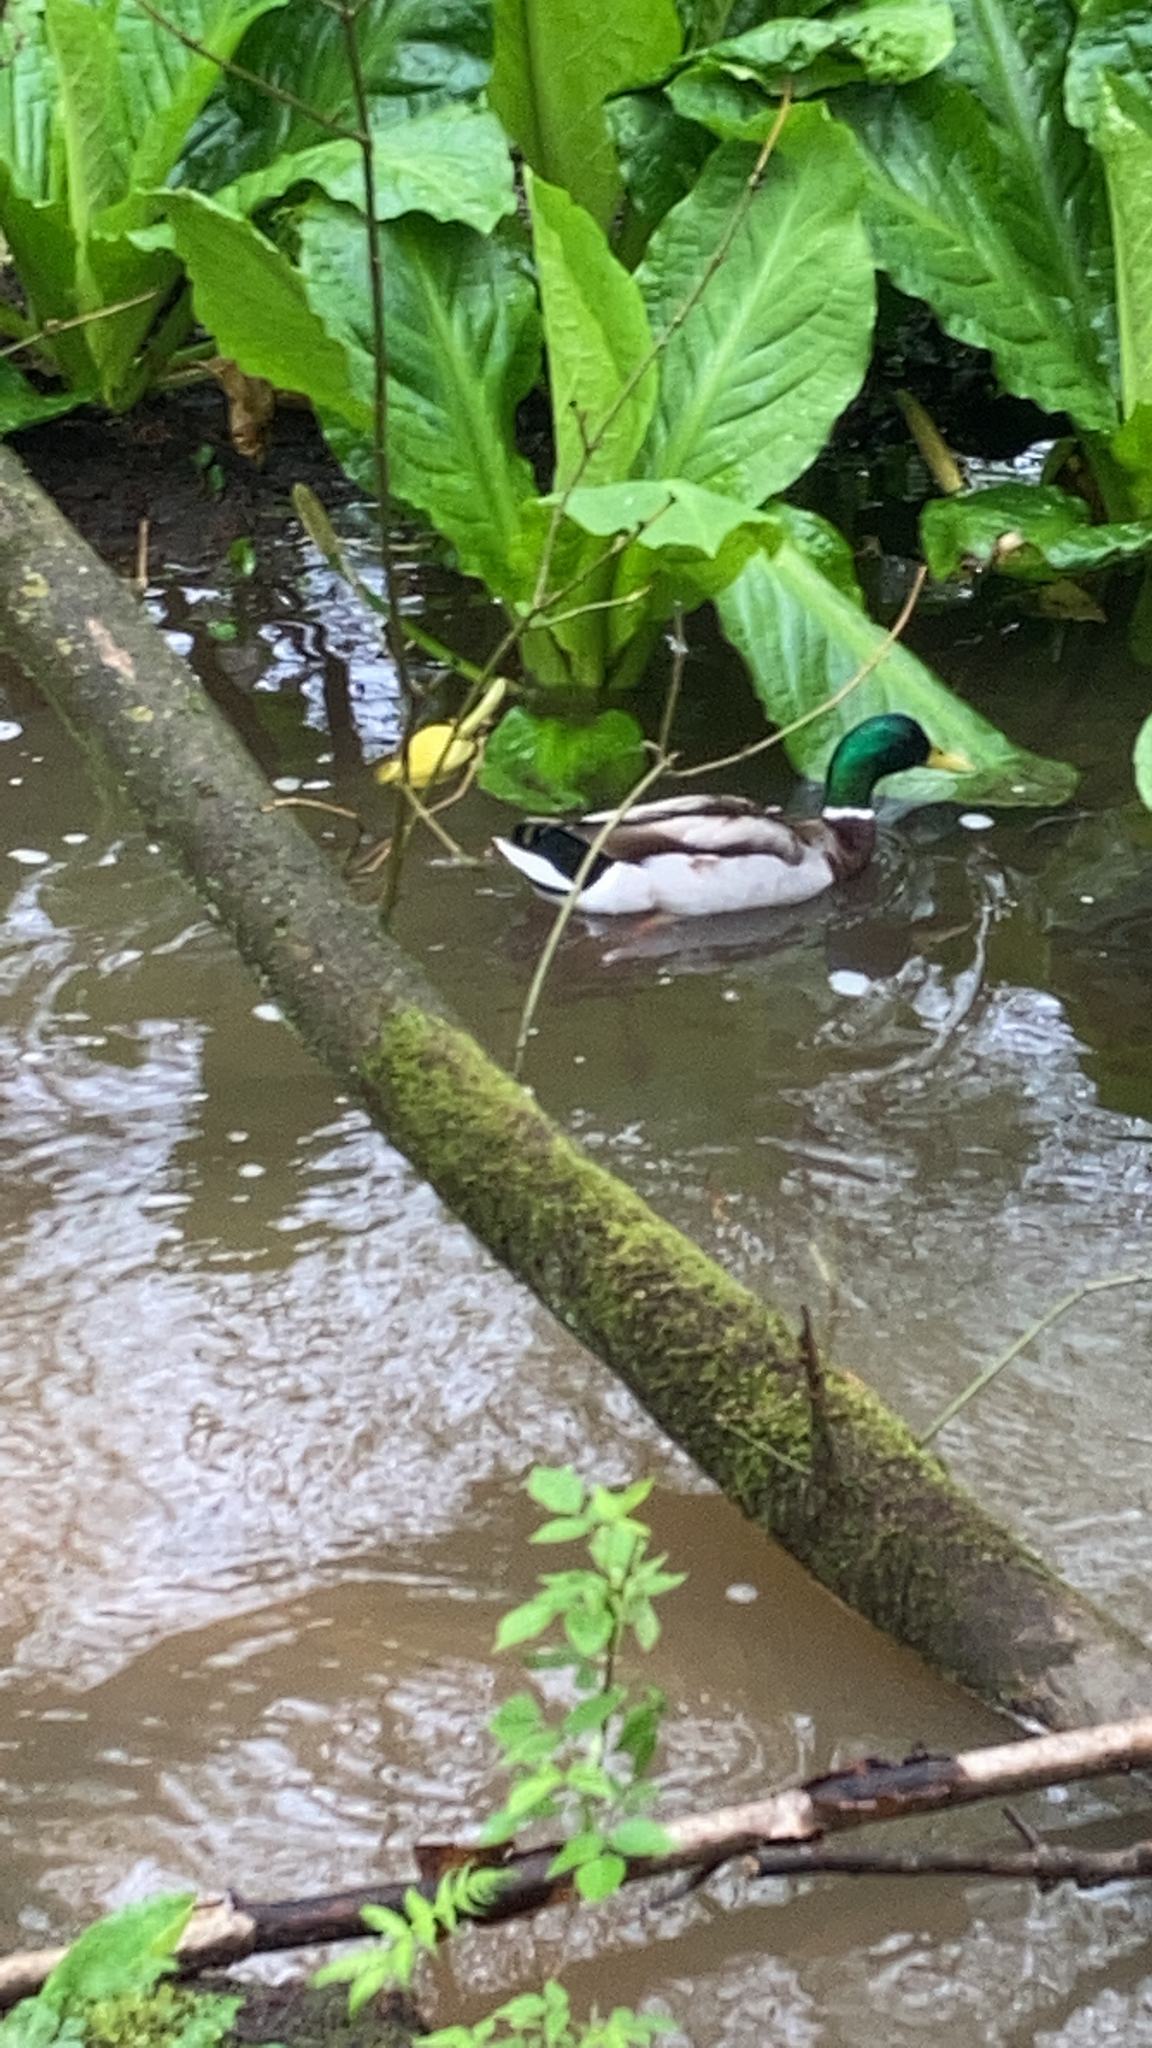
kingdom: Animalia
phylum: Chordata
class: Aves
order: Anseriformes
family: Anatidae
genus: Anas
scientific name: Anas platyrhynchos
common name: Mallard
